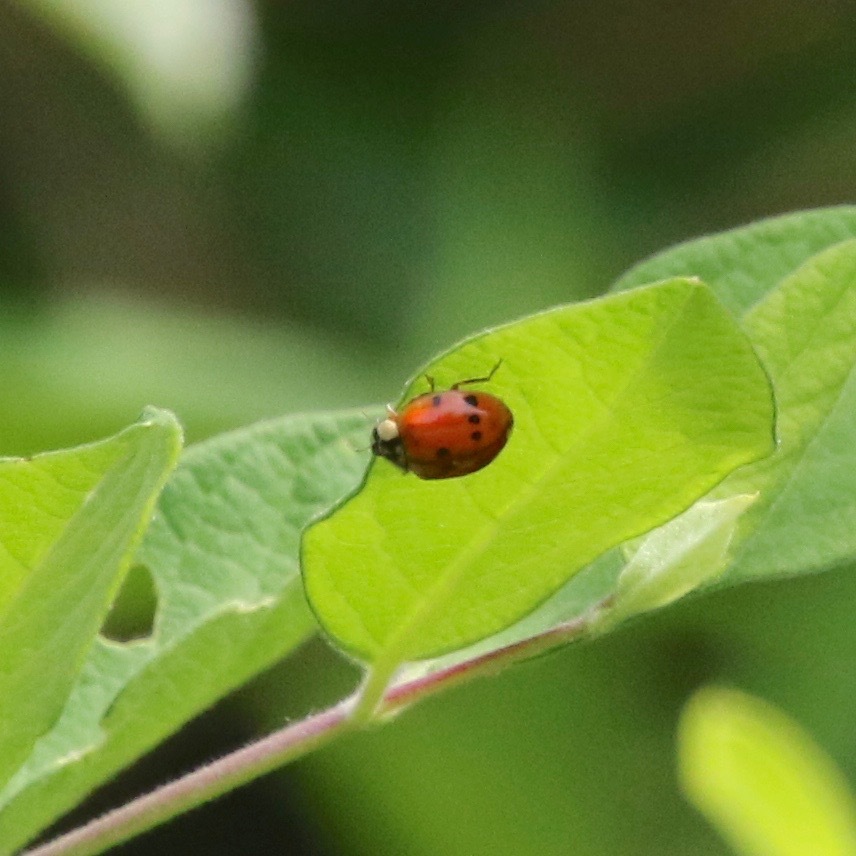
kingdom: Animalia
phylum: Arthropoda
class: Insecta
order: Coleoptera
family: Coccinellidae
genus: Harmonia
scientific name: Harmonia axyridis
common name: Harlequin ladybird
